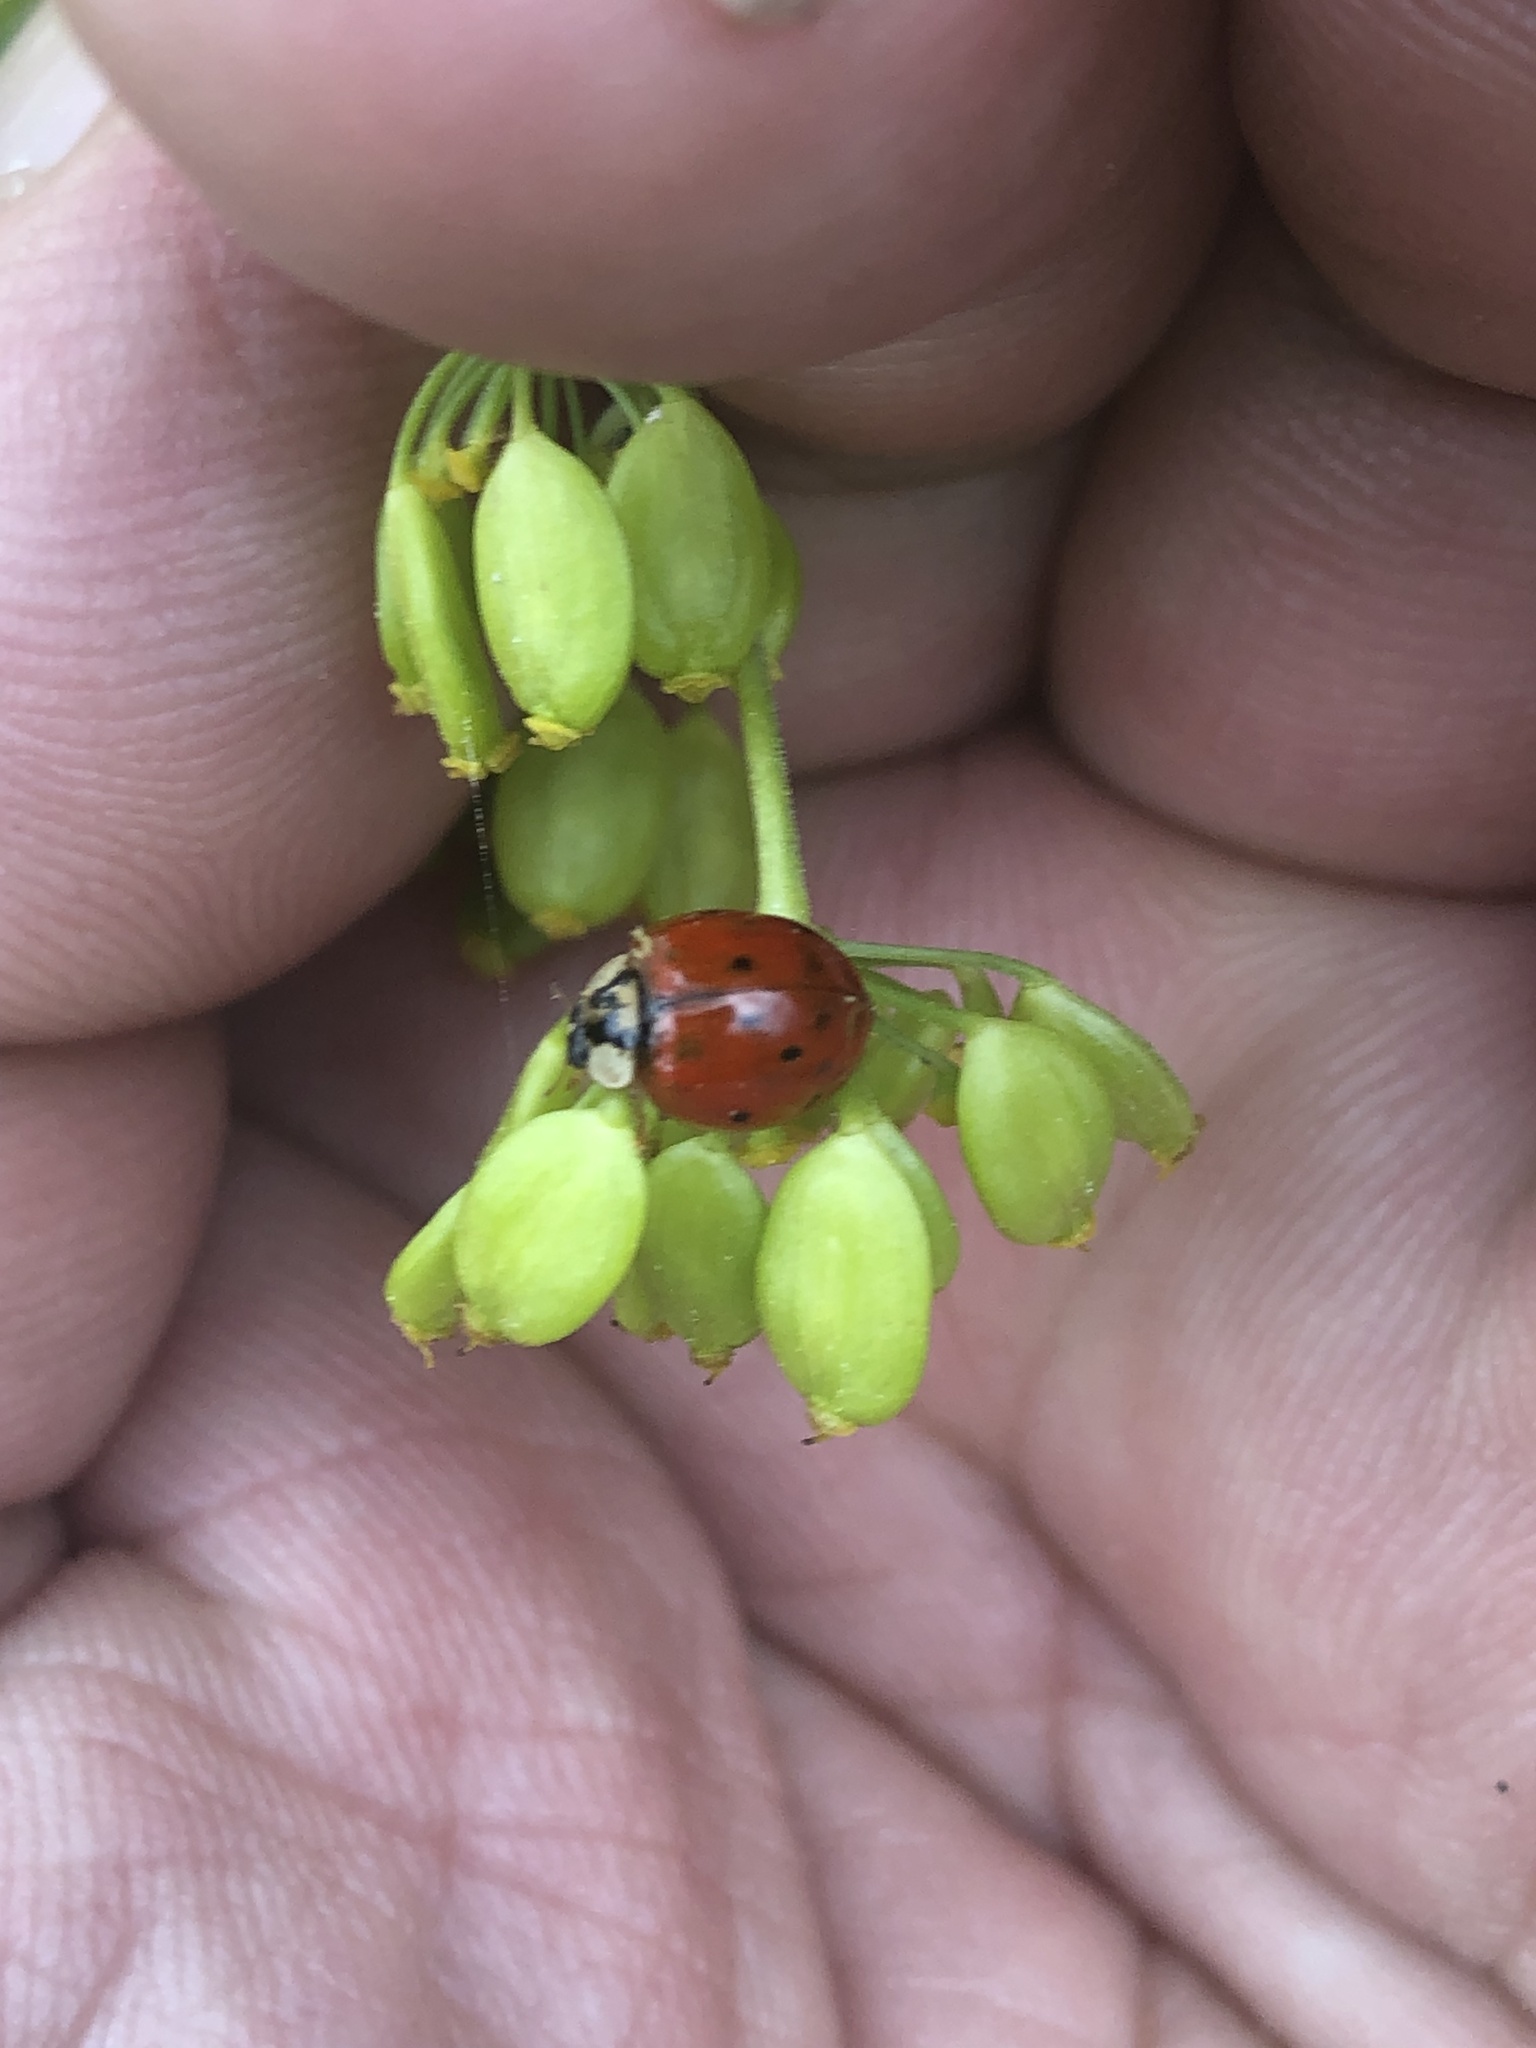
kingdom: Animalia
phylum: Arthropoda
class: Insecta
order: Coleoptera
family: Coccinellidae
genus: Harmonia
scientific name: Harmonia axyridis
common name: Harlequin ladybird
